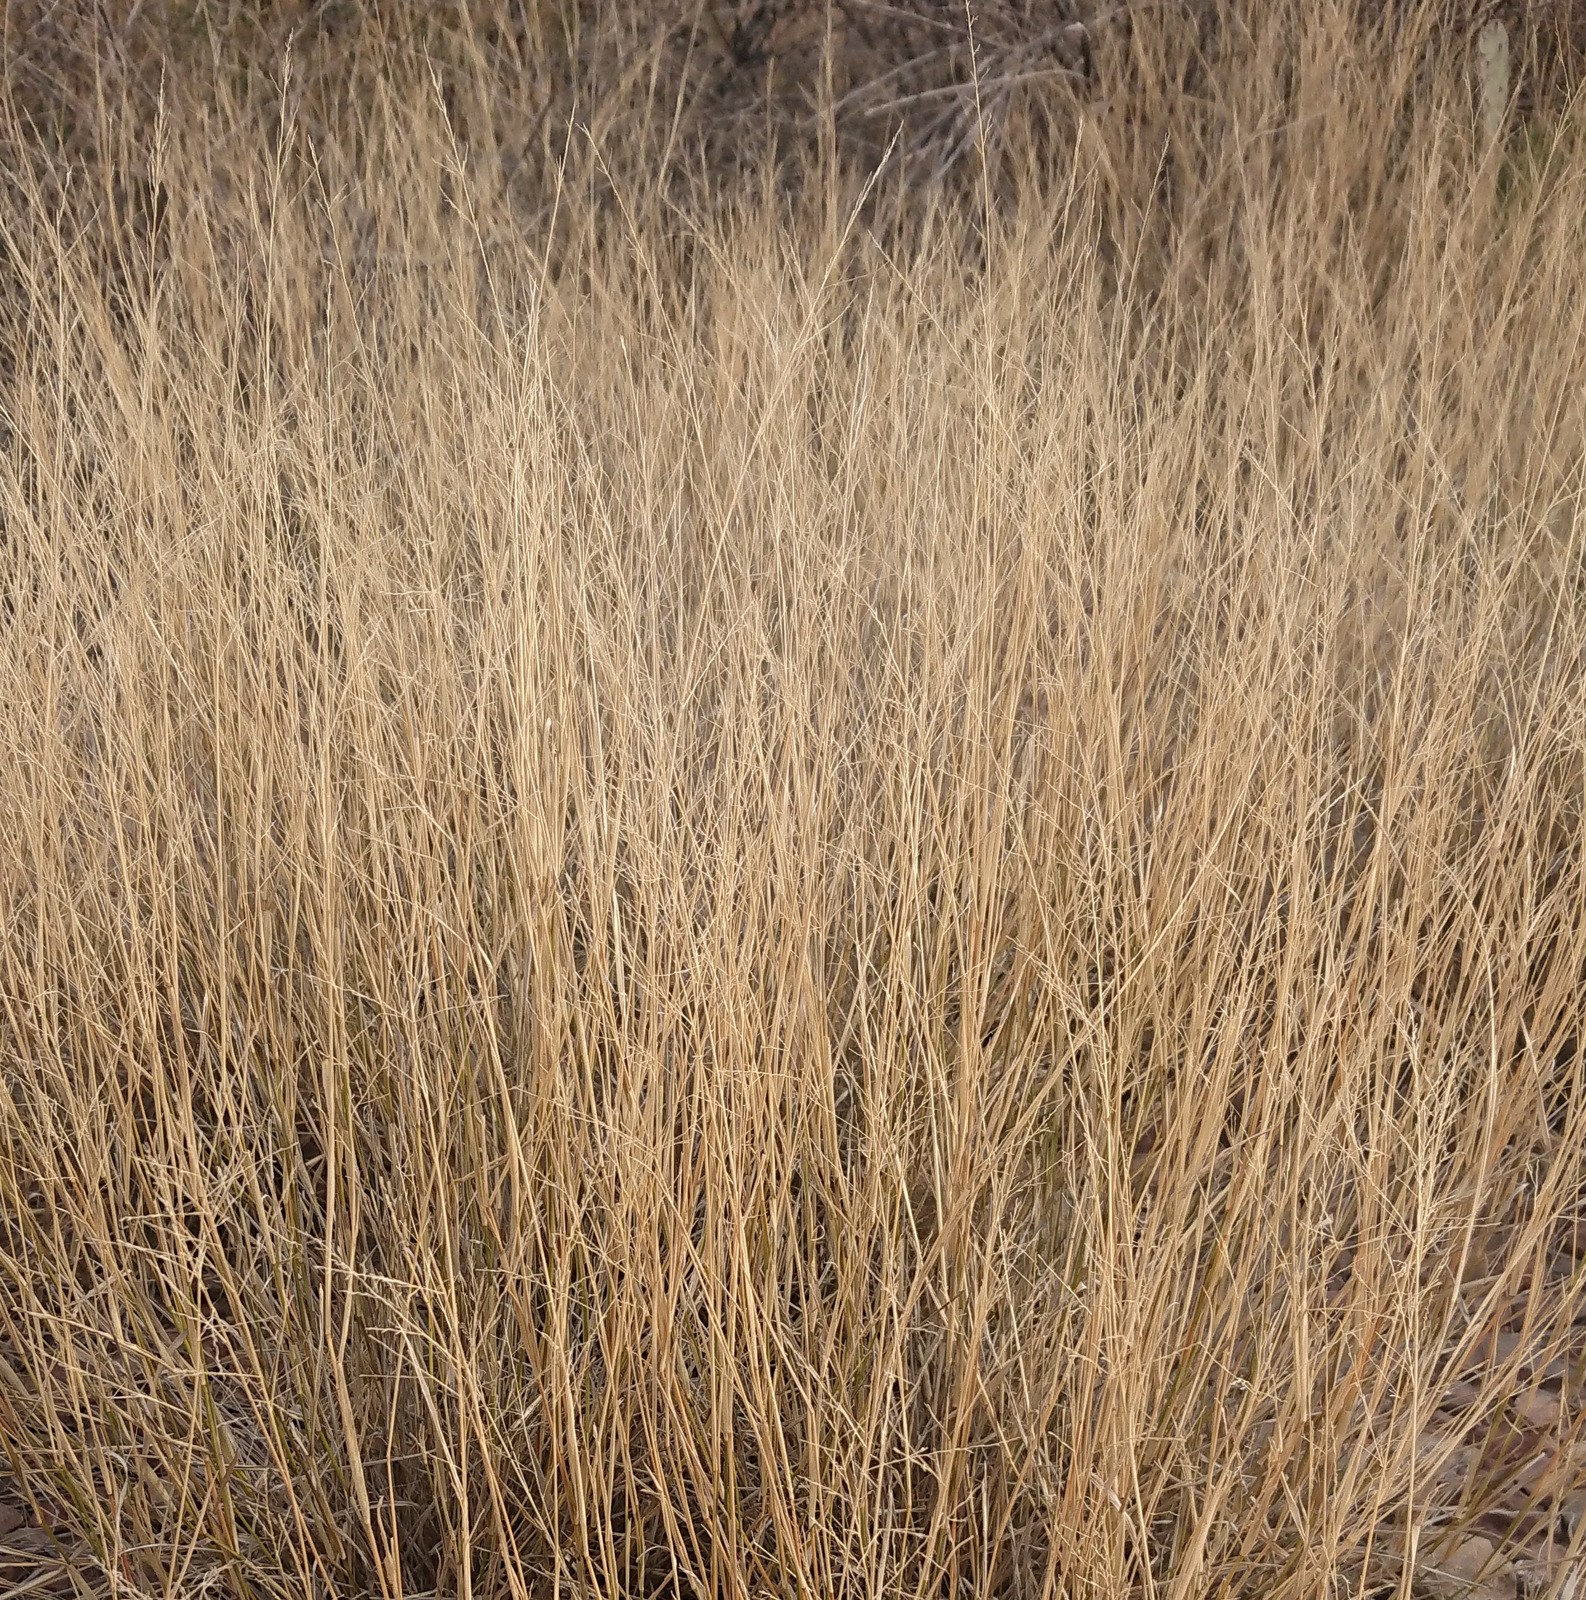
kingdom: Plantae
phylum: Tracheophyta
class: Liliopsida
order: Poales
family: Poaceae
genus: Eragrostis
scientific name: Eragrostis lehmanniana
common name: Lehmann lovegrass
